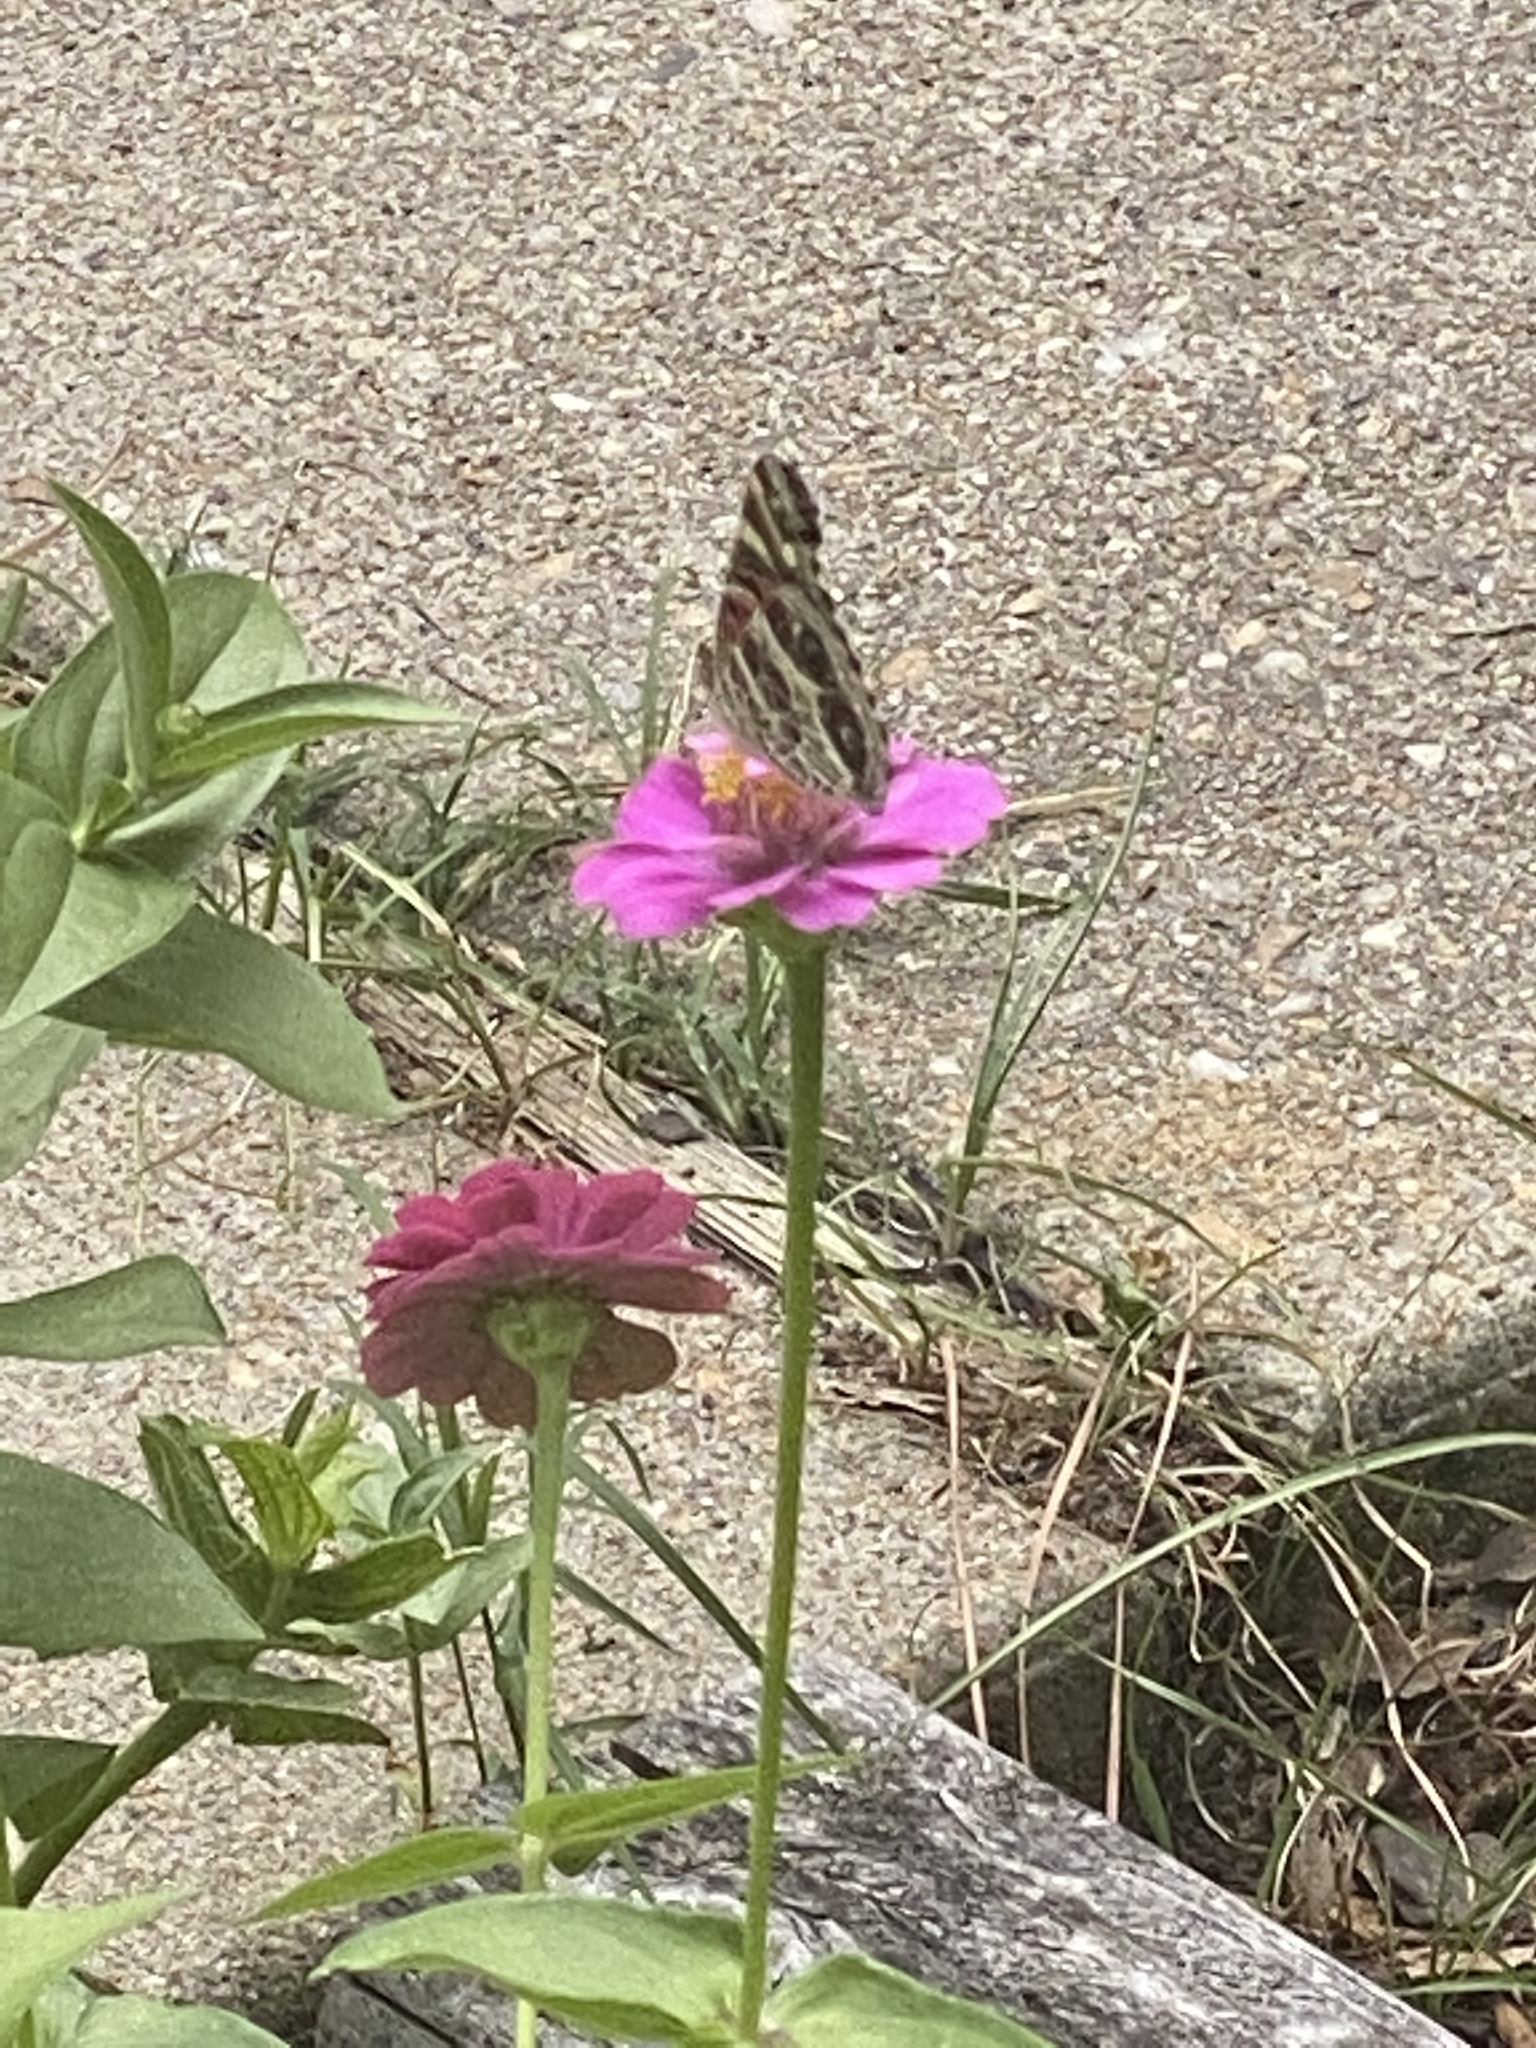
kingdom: Animalia
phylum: Arthropoda
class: Insecta
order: Lepidoptera
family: Nymphalidae
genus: Vanessa
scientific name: Vanessa virginiensis
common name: American lady
